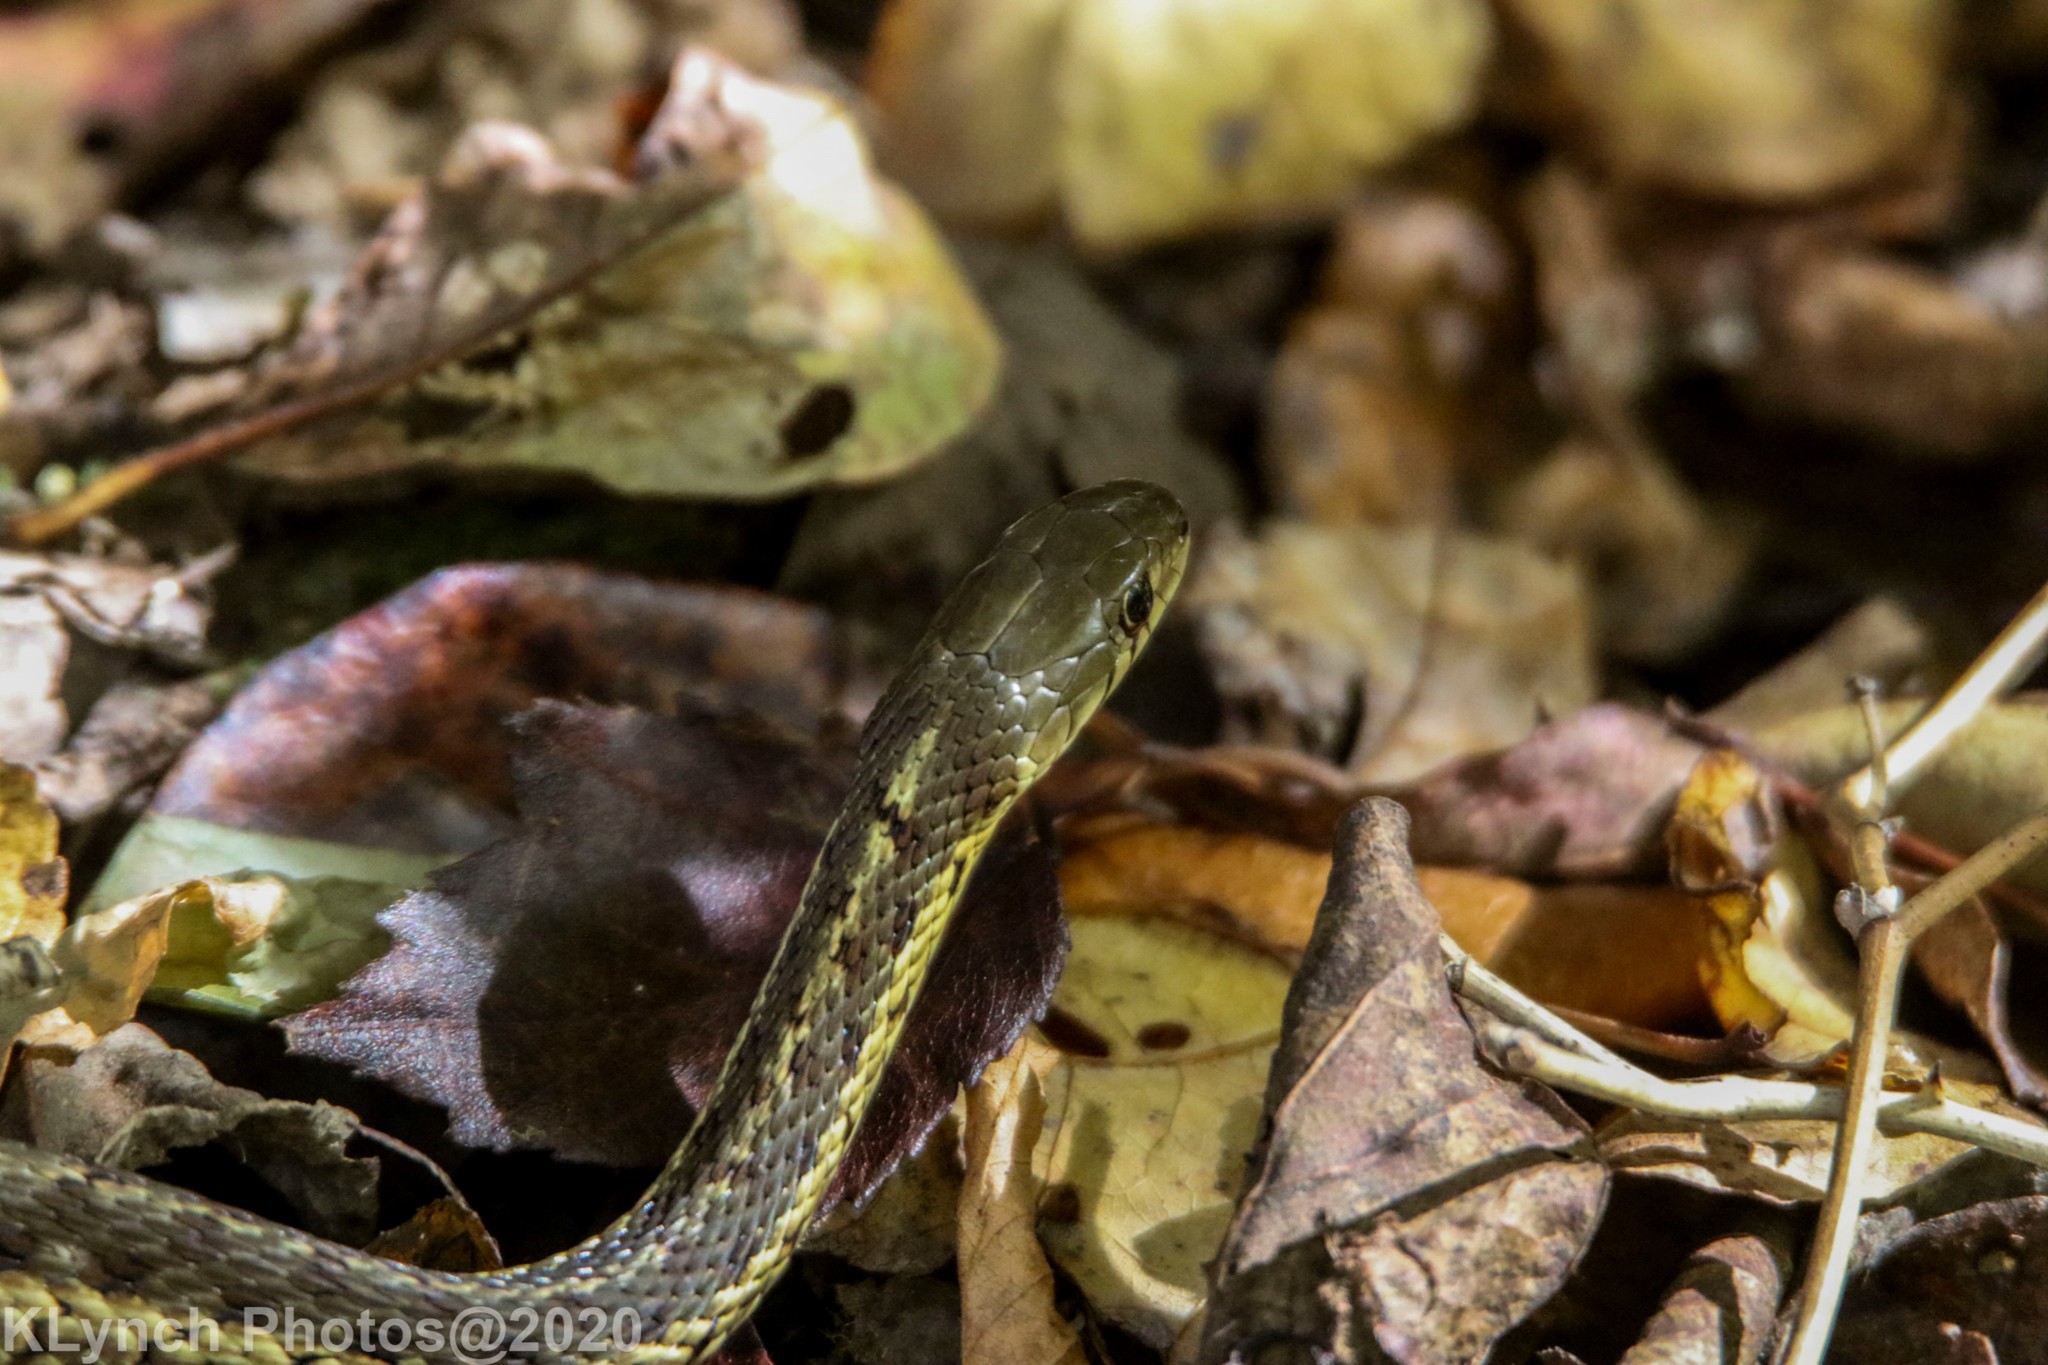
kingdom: Animalia
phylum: Chordata
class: Squamata
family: Colubridae
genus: Thamnophis
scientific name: Thamnophis sirtalis
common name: Common garter snake
